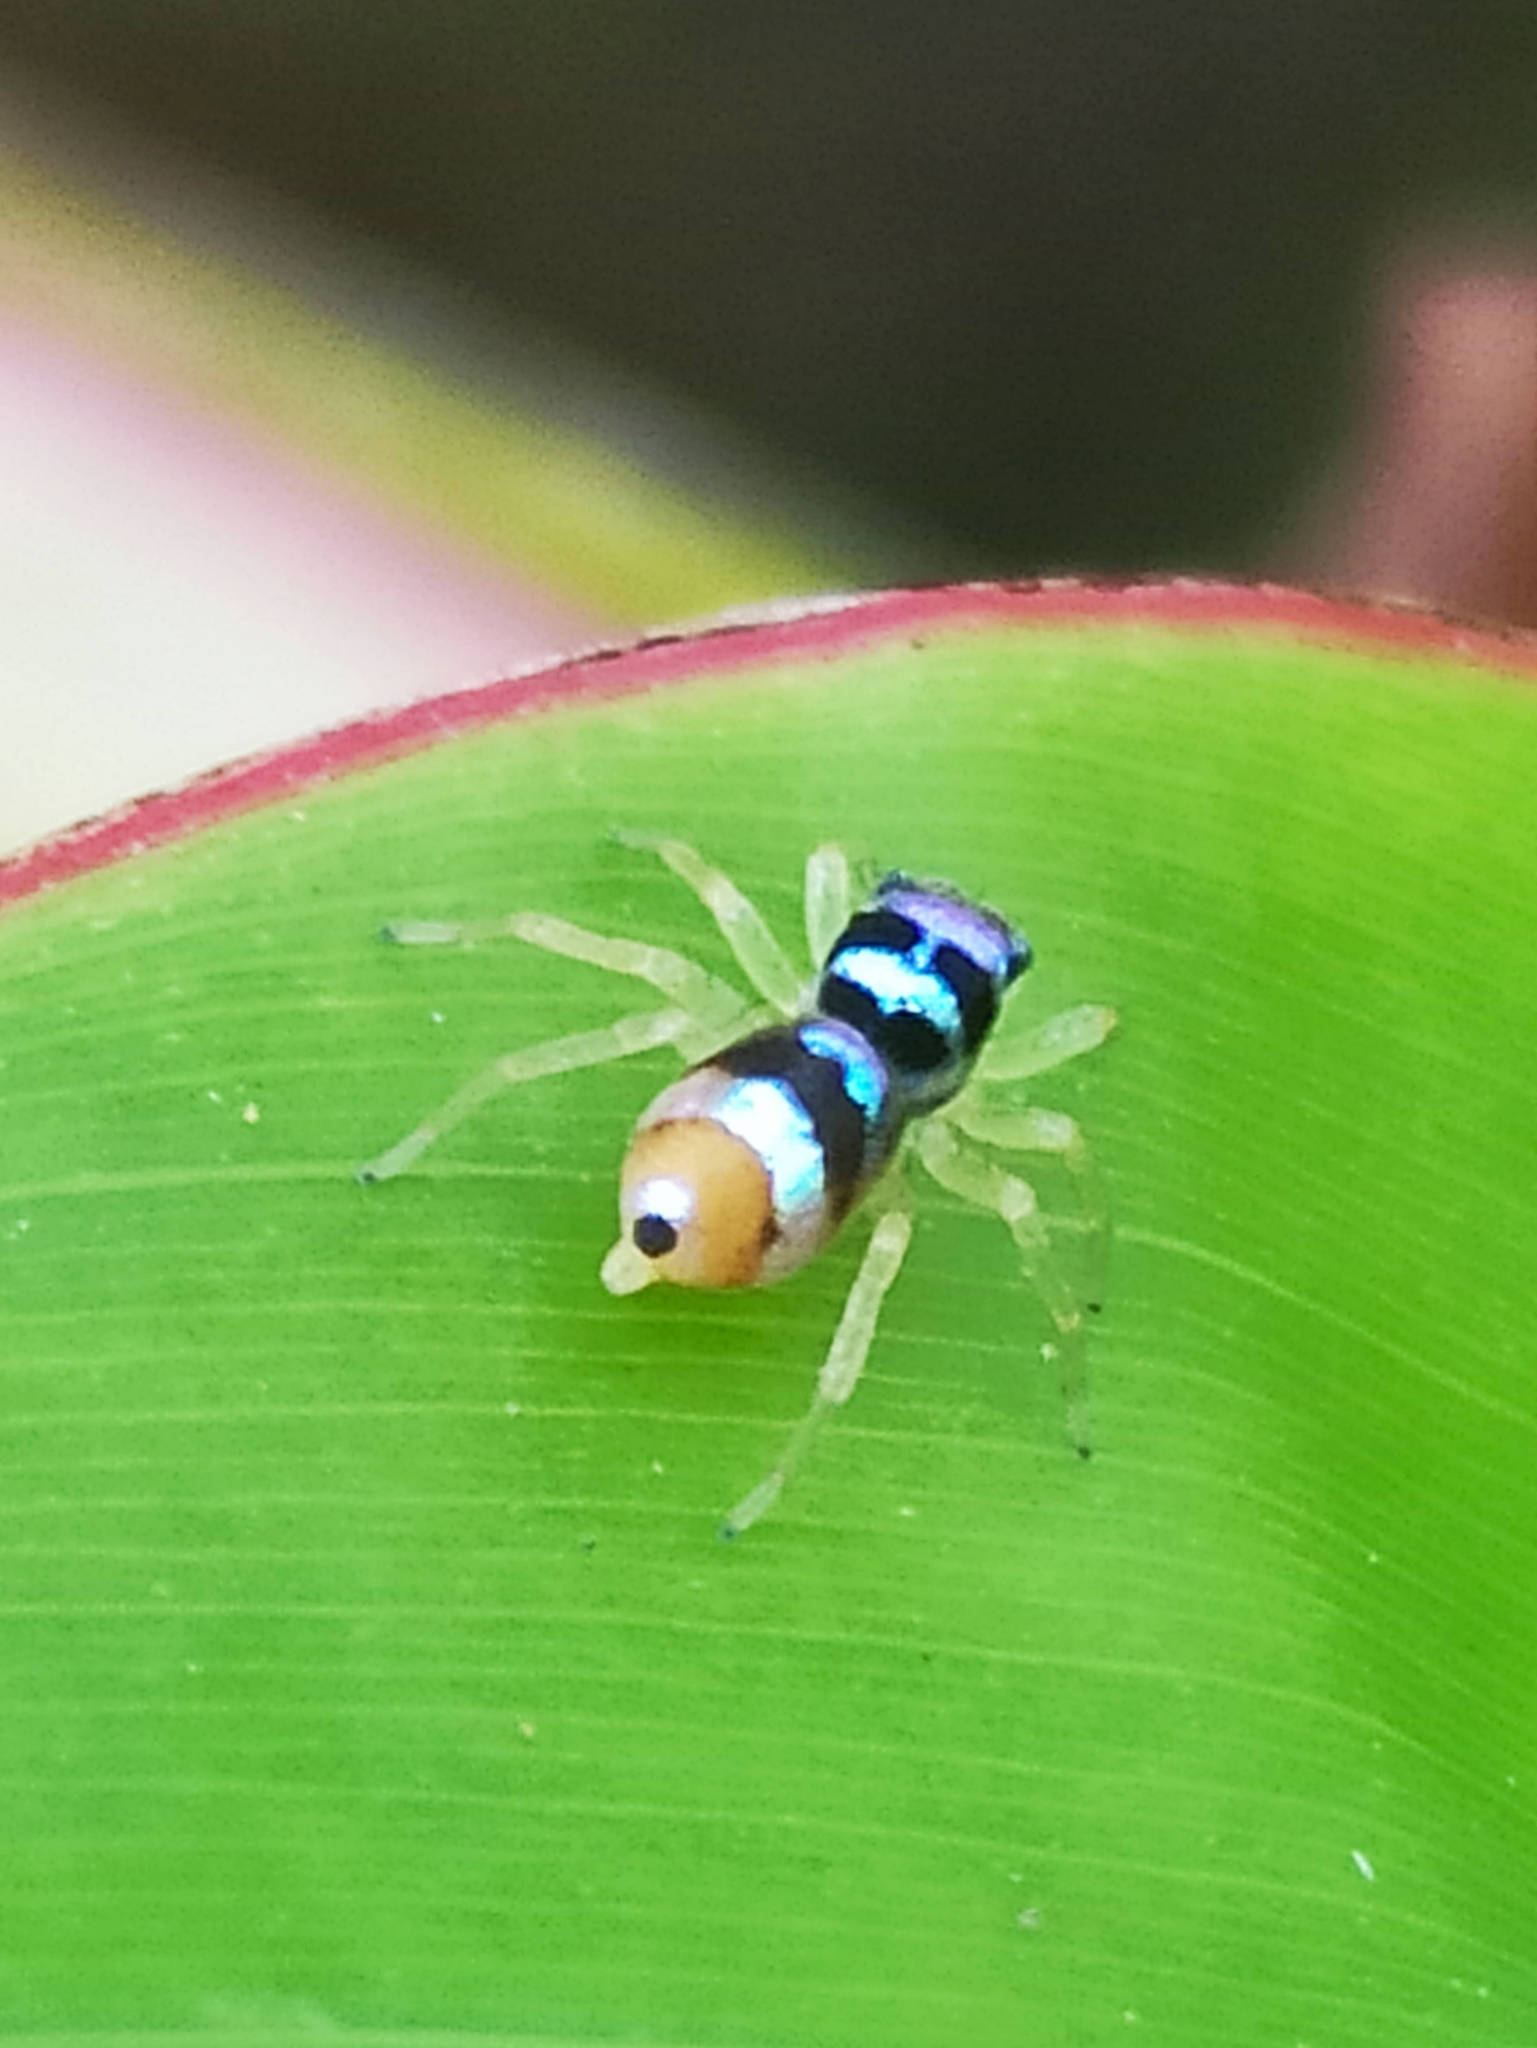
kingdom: Animalia
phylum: Arthropoda
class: Arachnida
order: Araneae
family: Salticidae
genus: Phintella
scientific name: Phintella vittata
